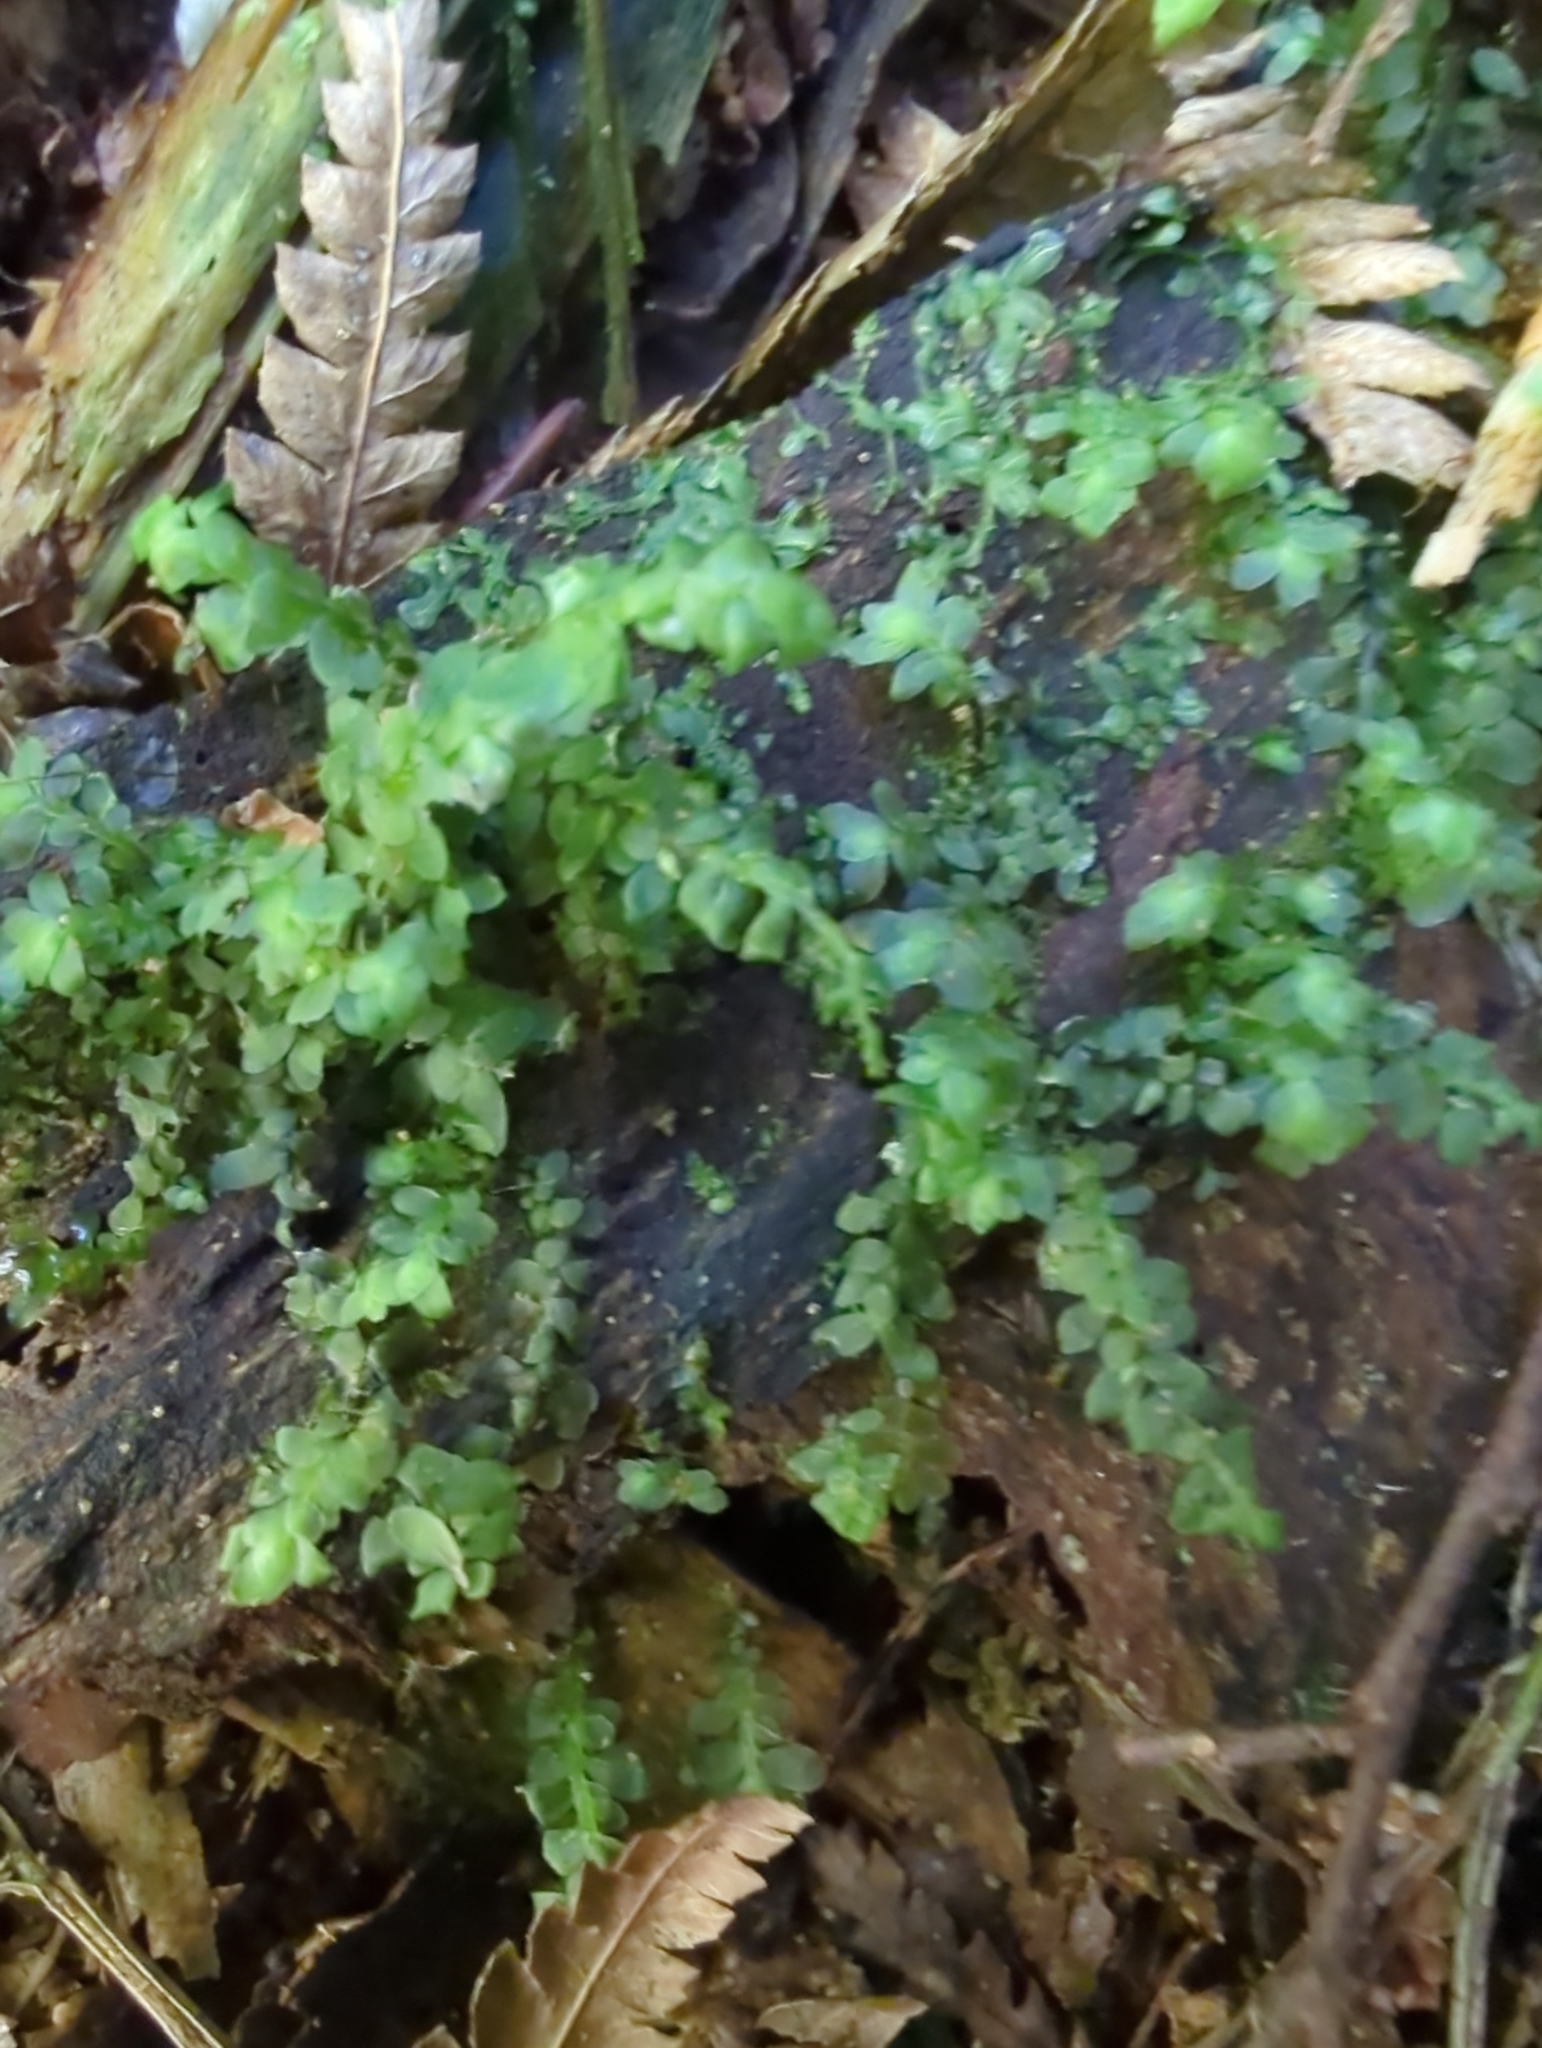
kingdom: Plantae
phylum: Bryophyta
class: Bryopsida
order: Hookeriales
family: Daltoniaceae
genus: Achrophyllum
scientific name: Achrophyllum dentatum
